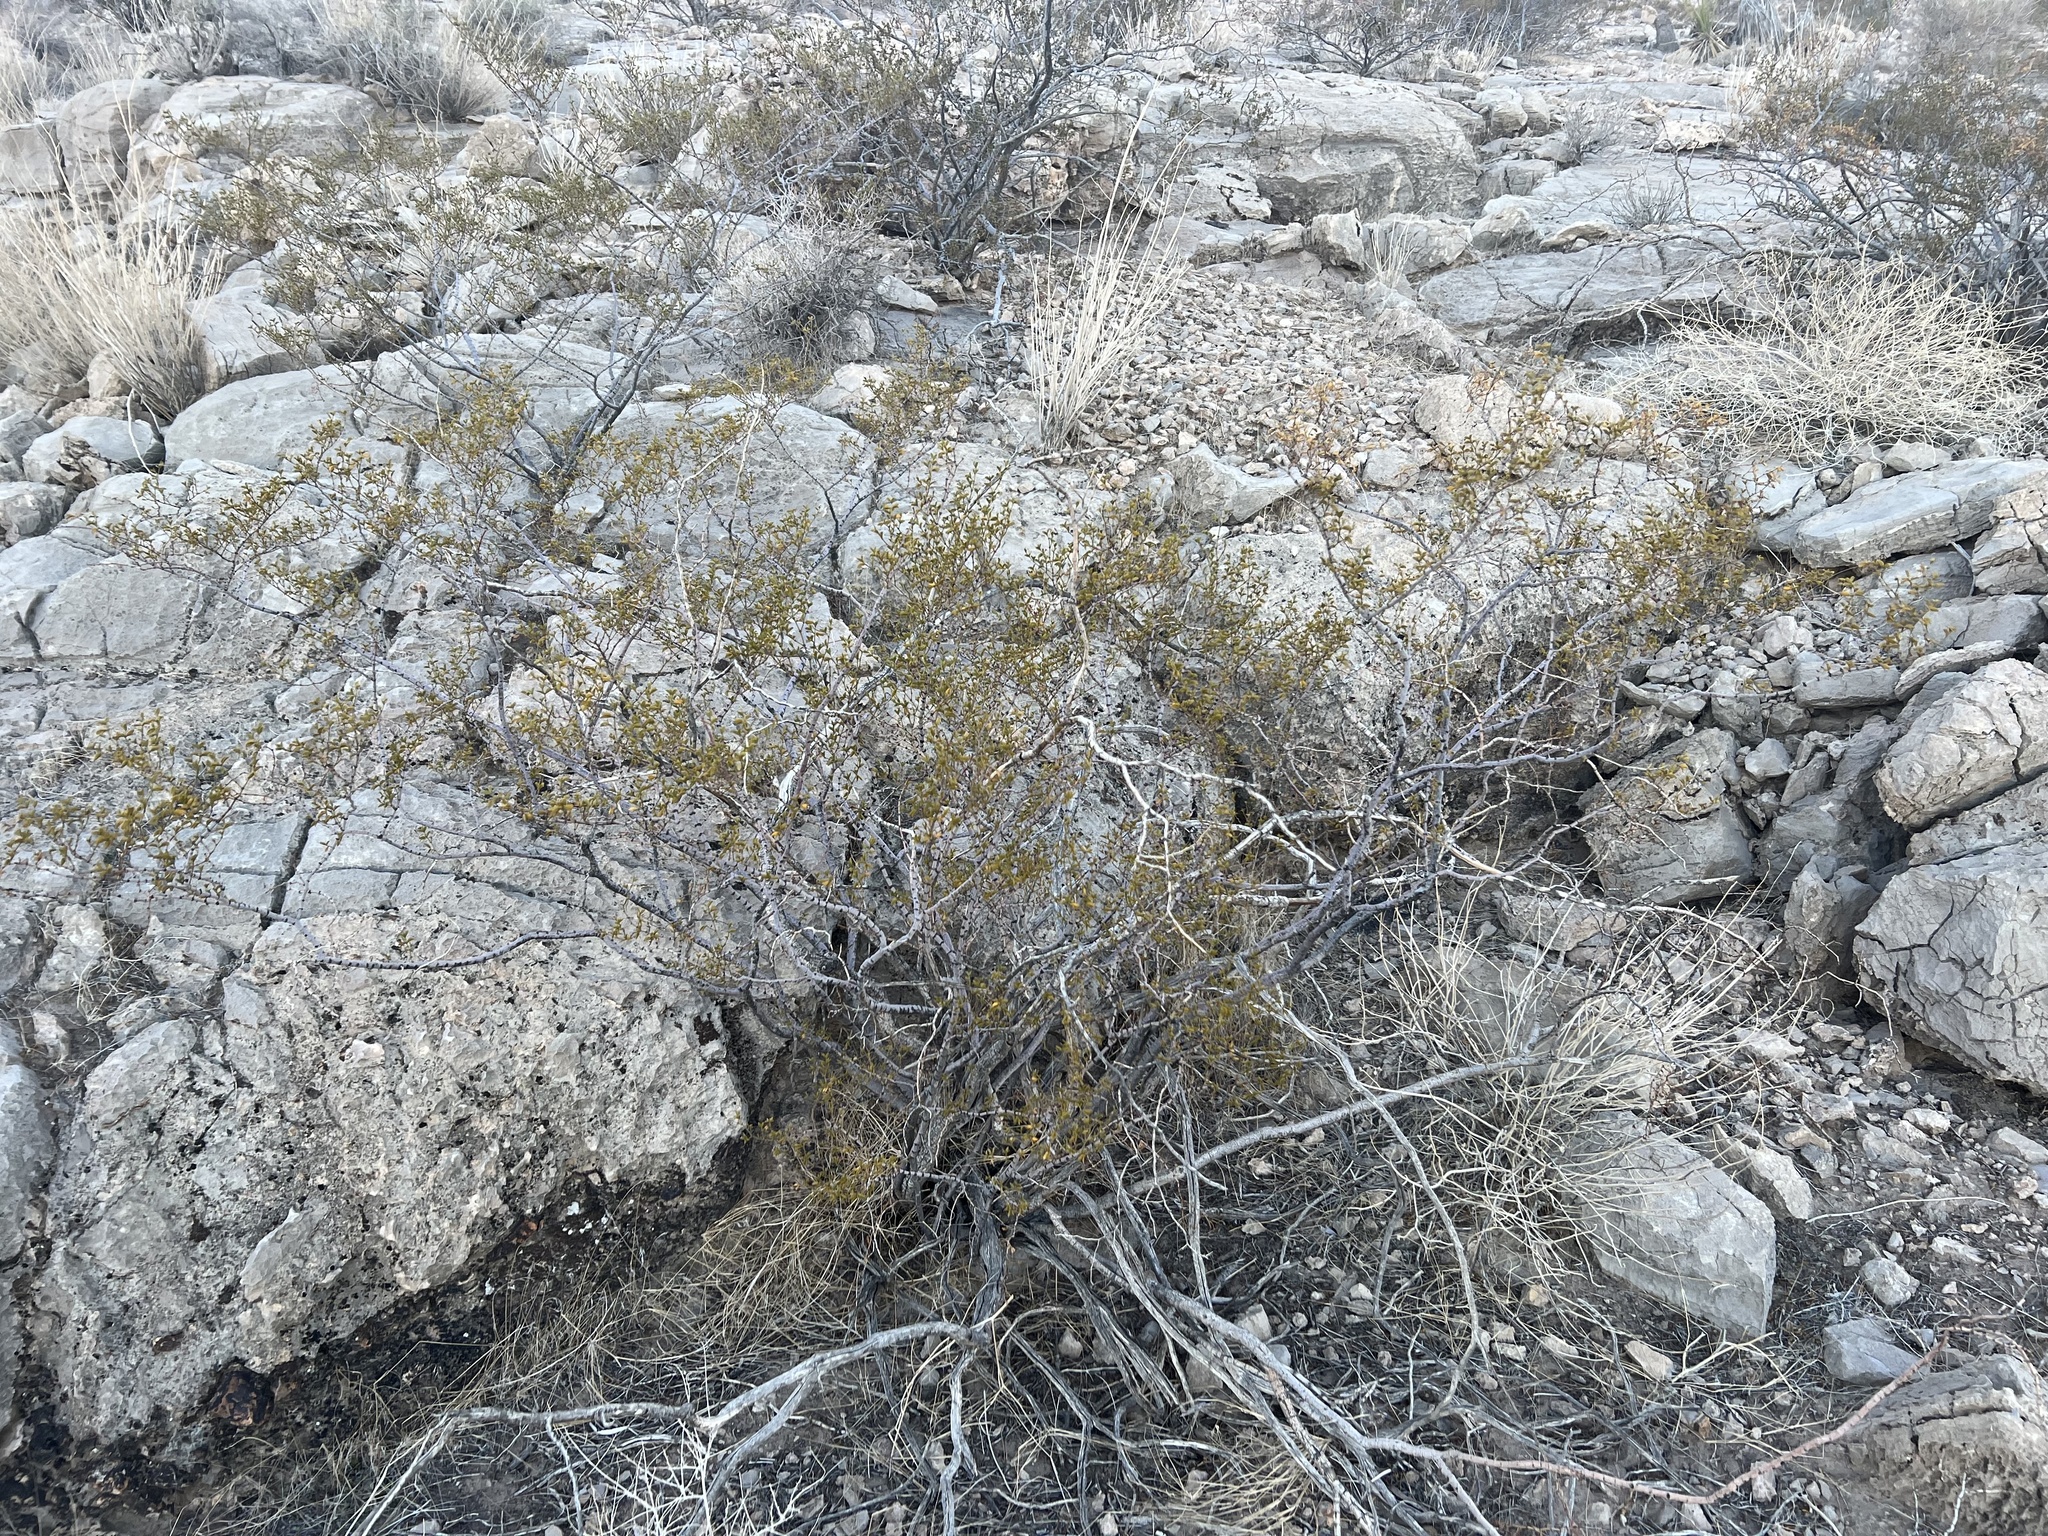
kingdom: Plantae
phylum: Tracheophyta
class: Magnoliopsida
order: Zygophyllales
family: Zygophyllaceae
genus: Larrea
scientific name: Larrea tridentata
